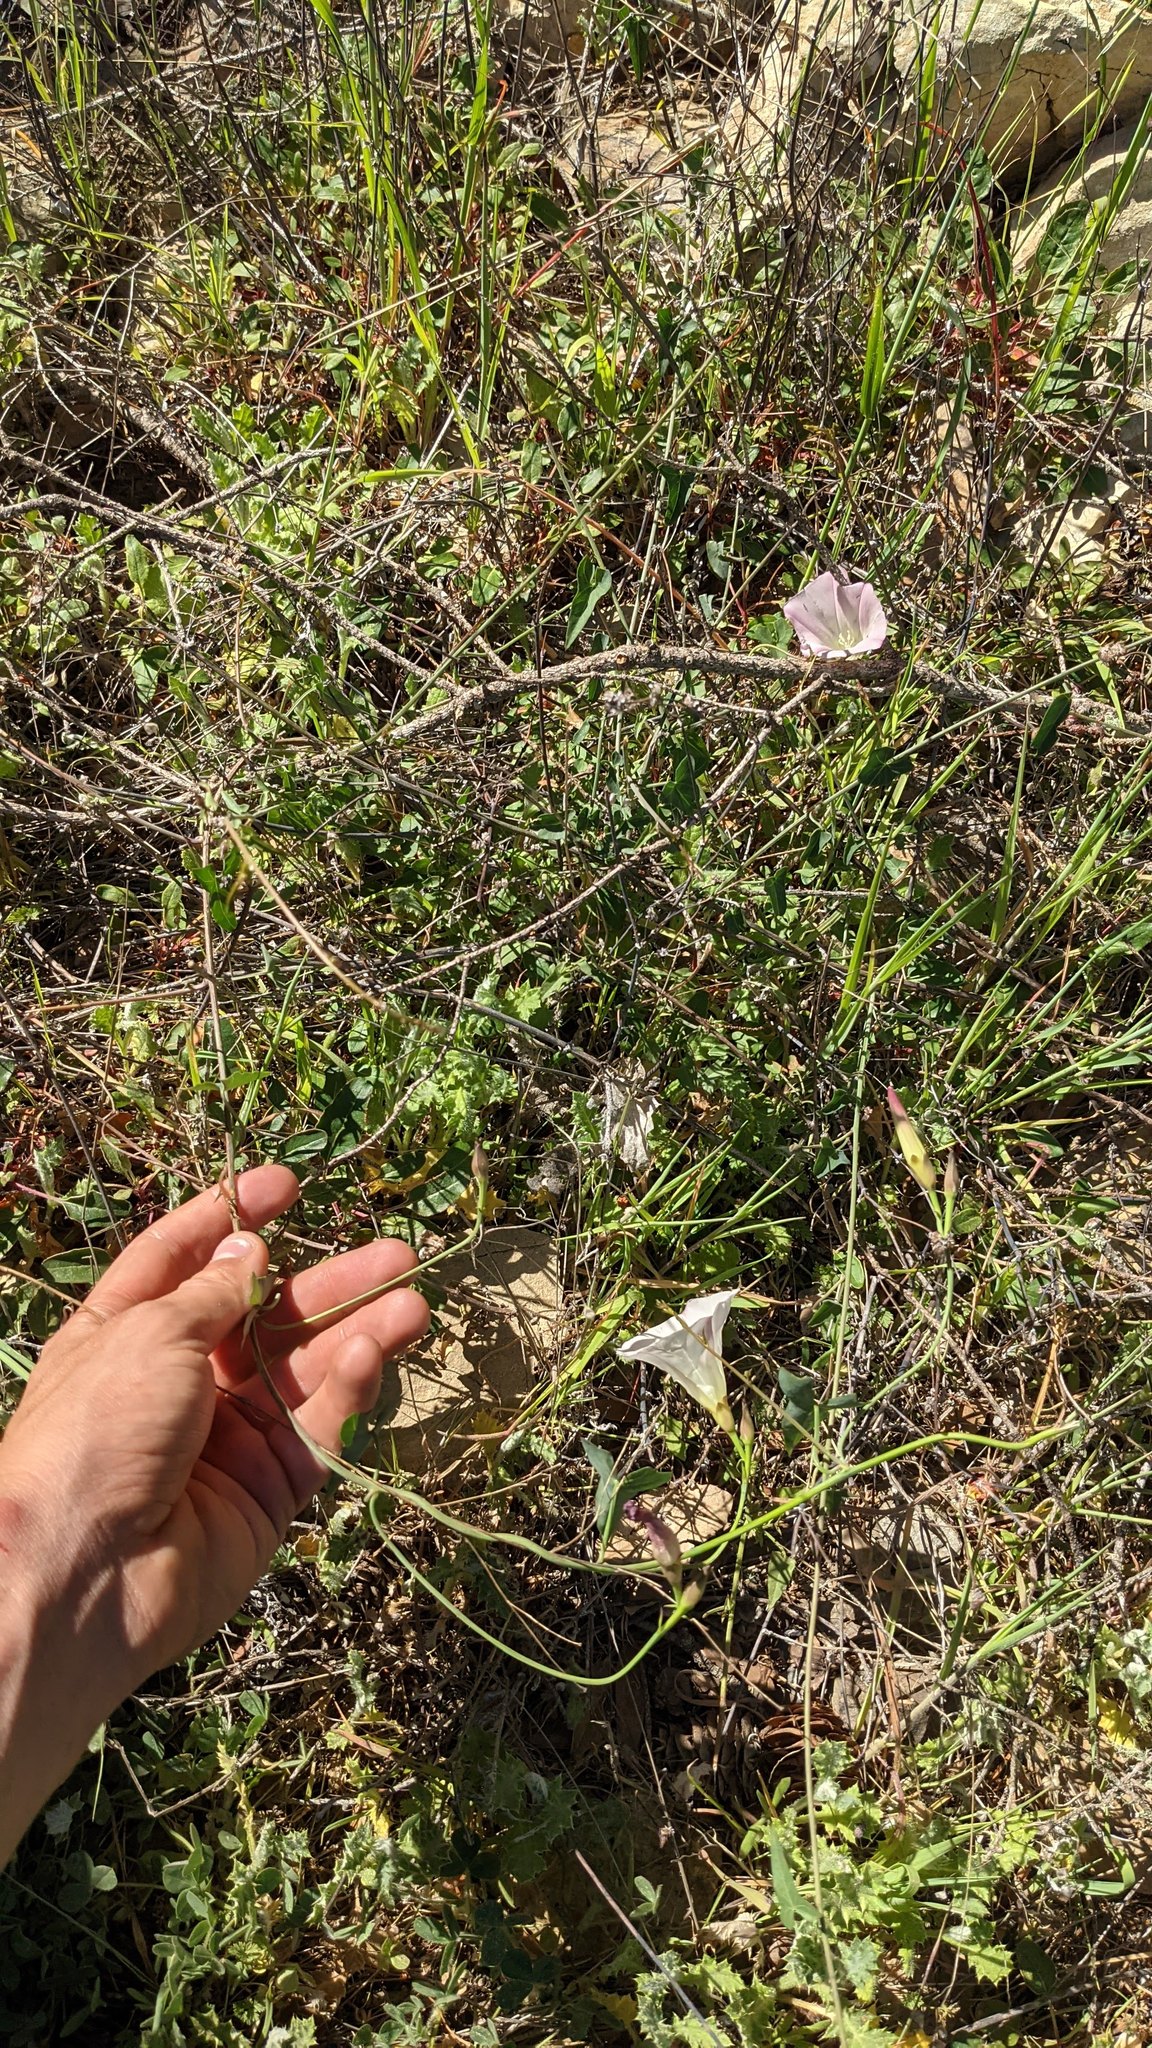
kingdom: Plantae
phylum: Tracheophyta
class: Magnoliopsida
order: Solanales
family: Convolvulaceae
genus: Calystegia
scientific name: Calystegia purpurata
